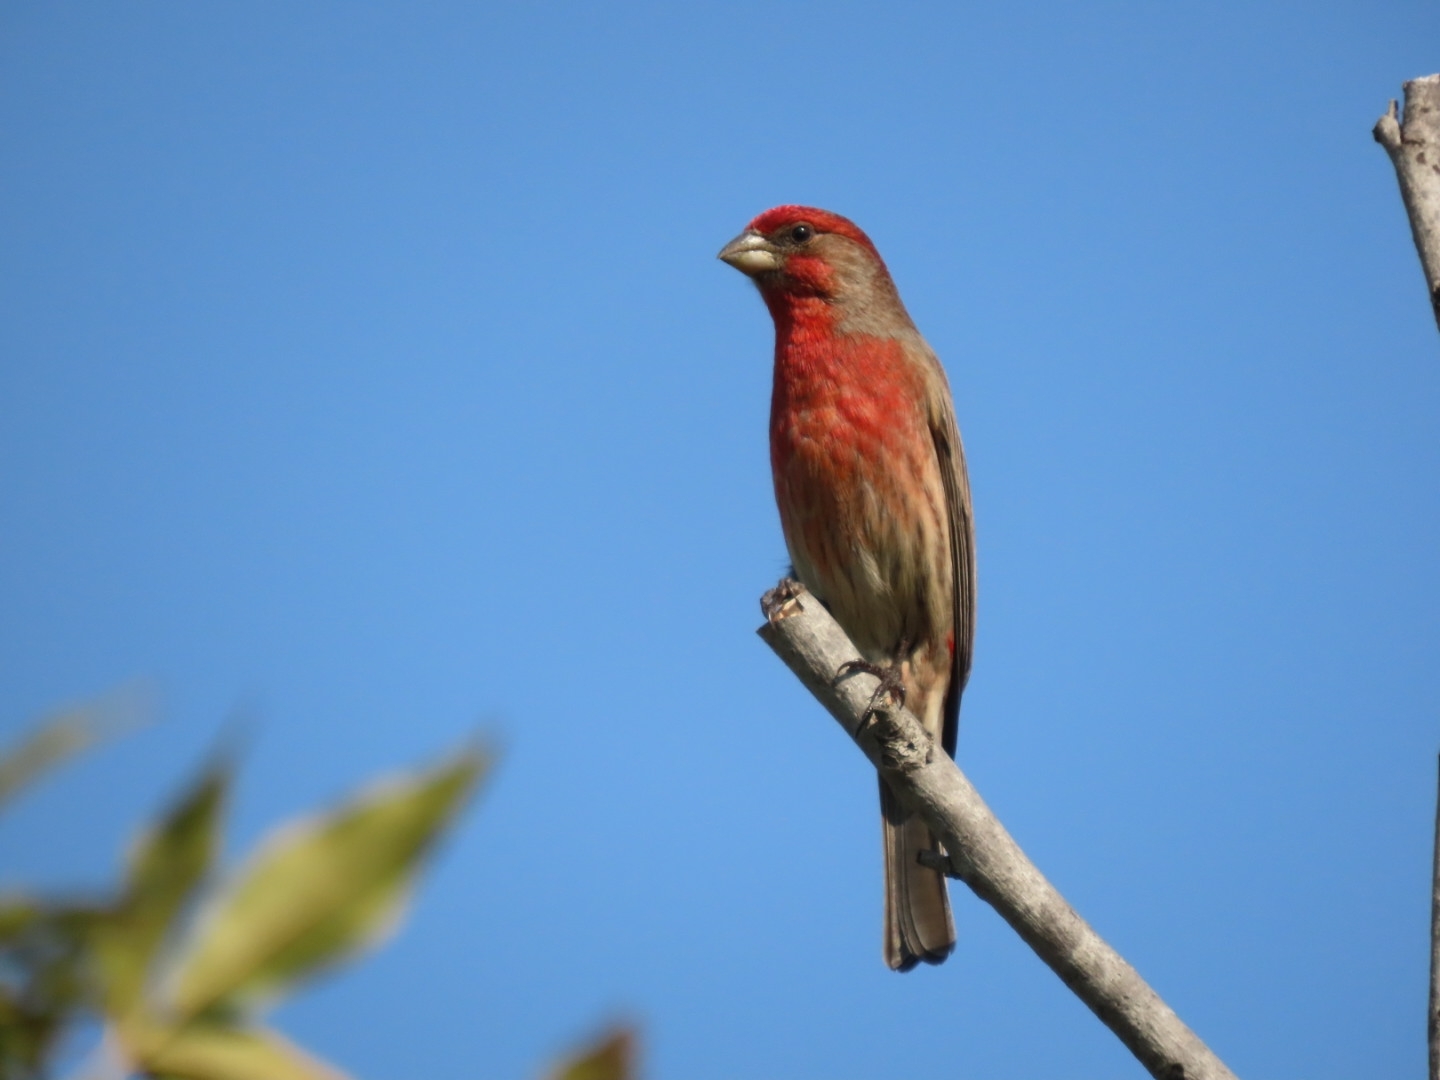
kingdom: Animalia
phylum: Chordata
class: Aves
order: Passeriformes
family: Fringillidae
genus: Haemorhous
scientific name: Haemorhous mexicanus
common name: House finch
